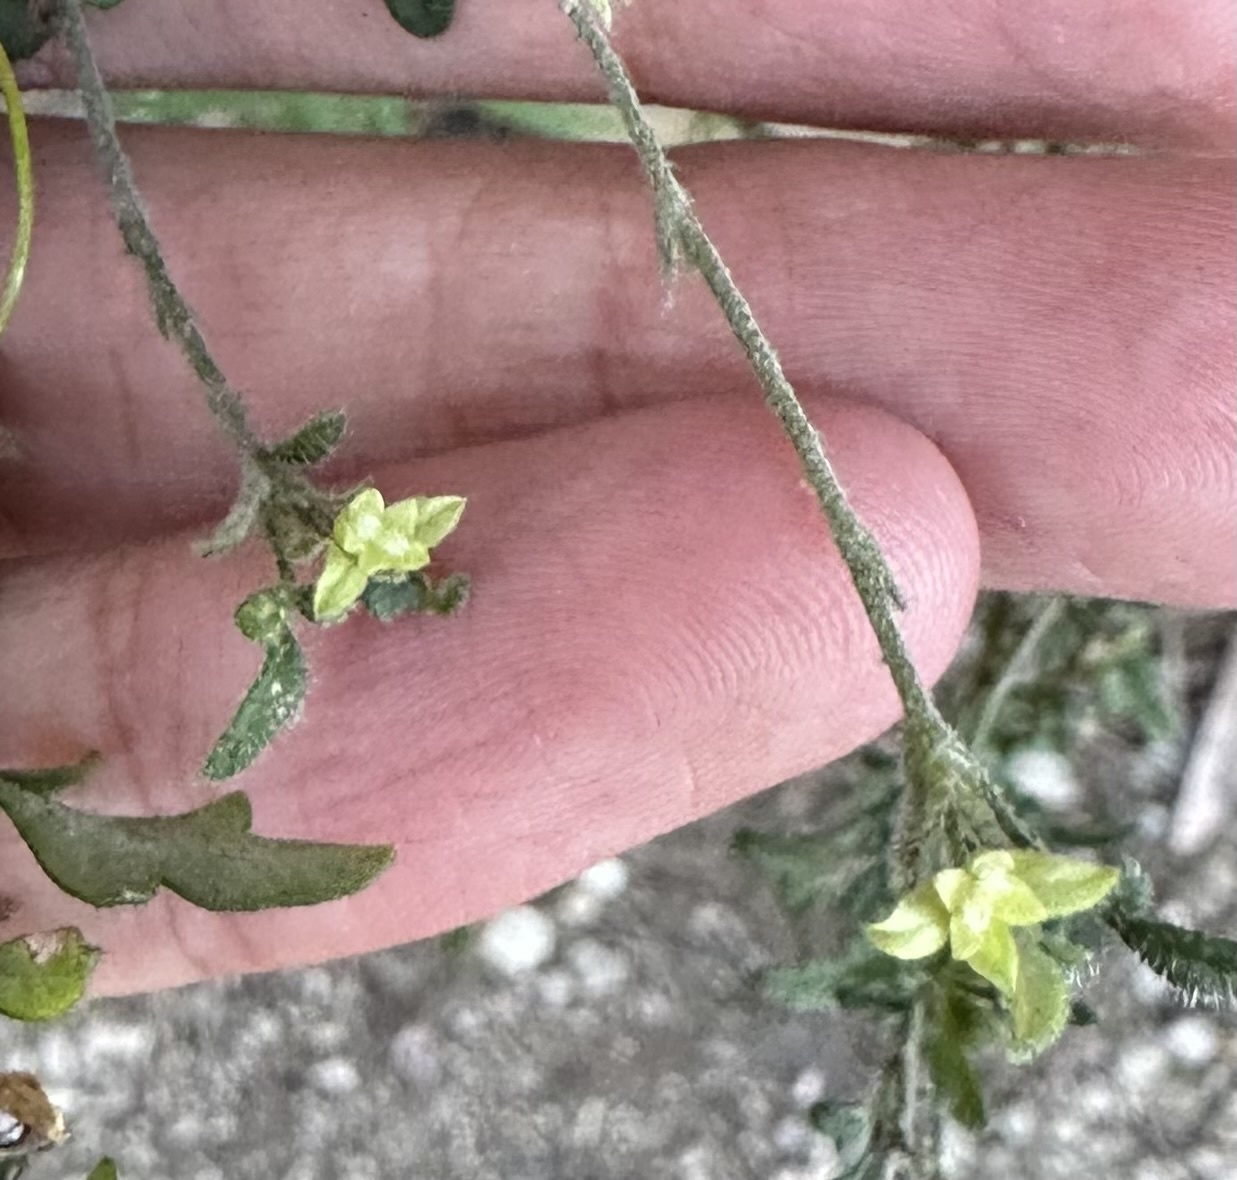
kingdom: Plantae
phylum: Tracheophyta
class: Magnoliopsida
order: Apiales
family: Apiaceae
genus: Xanthosia
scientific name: Xanthosia pilosa
